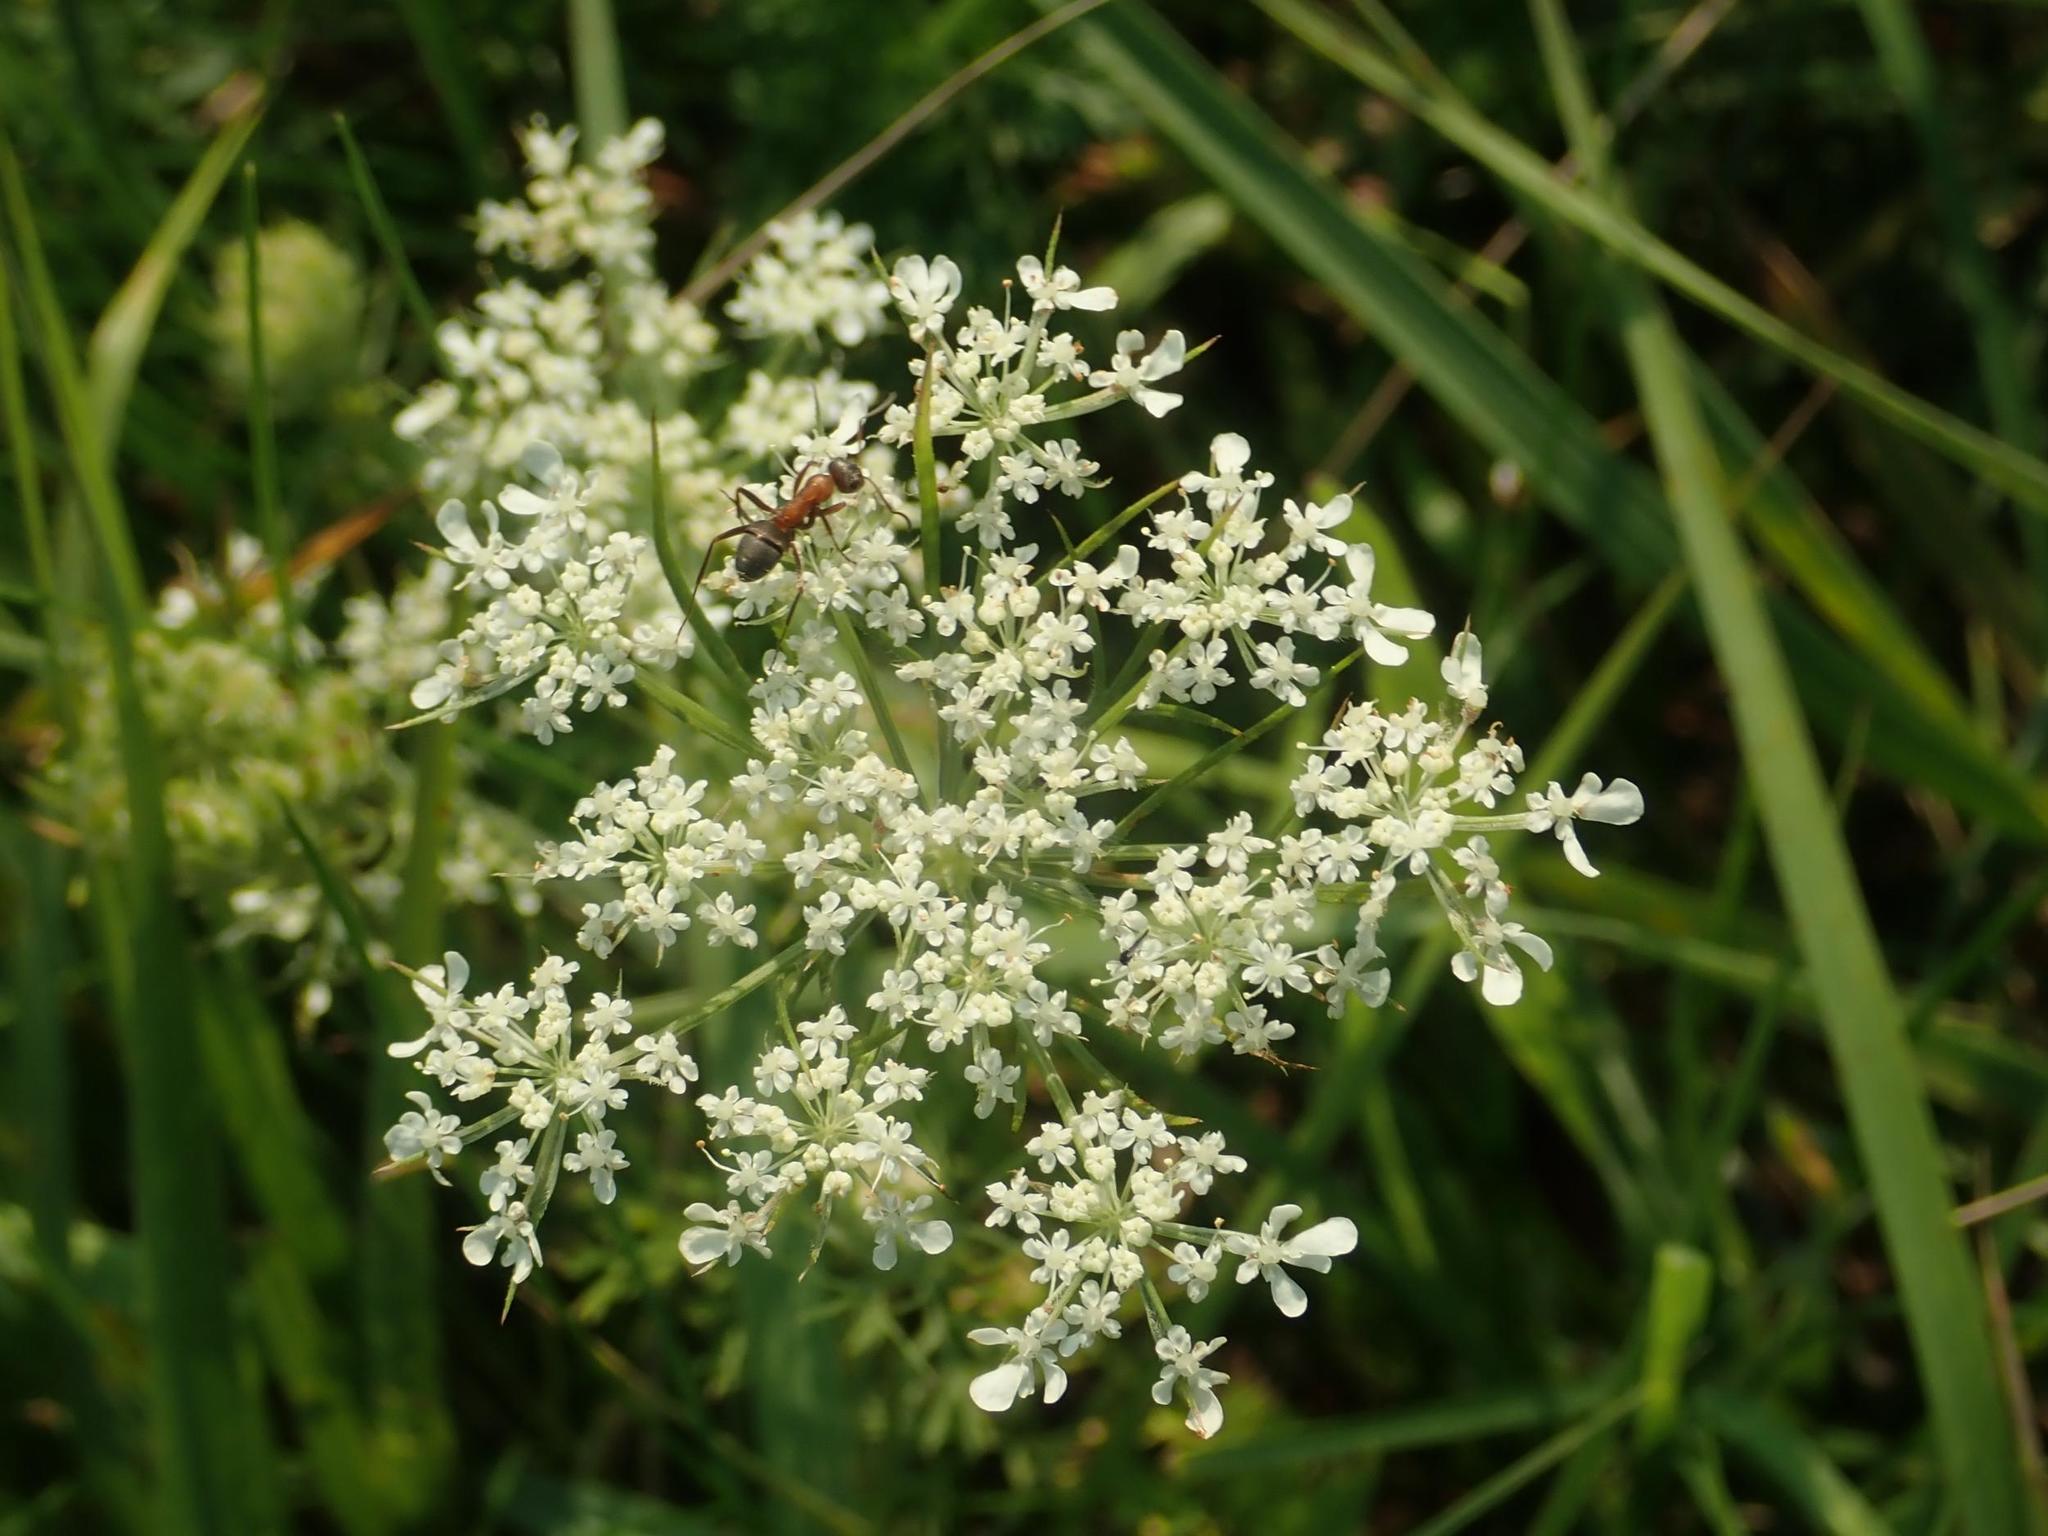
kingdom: Plantae
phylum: Tracheophyta
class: Magnoliopsida
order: Apiales
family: Apiaceae
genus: Daucus
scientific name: Daucus carota
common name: Wild carrot
